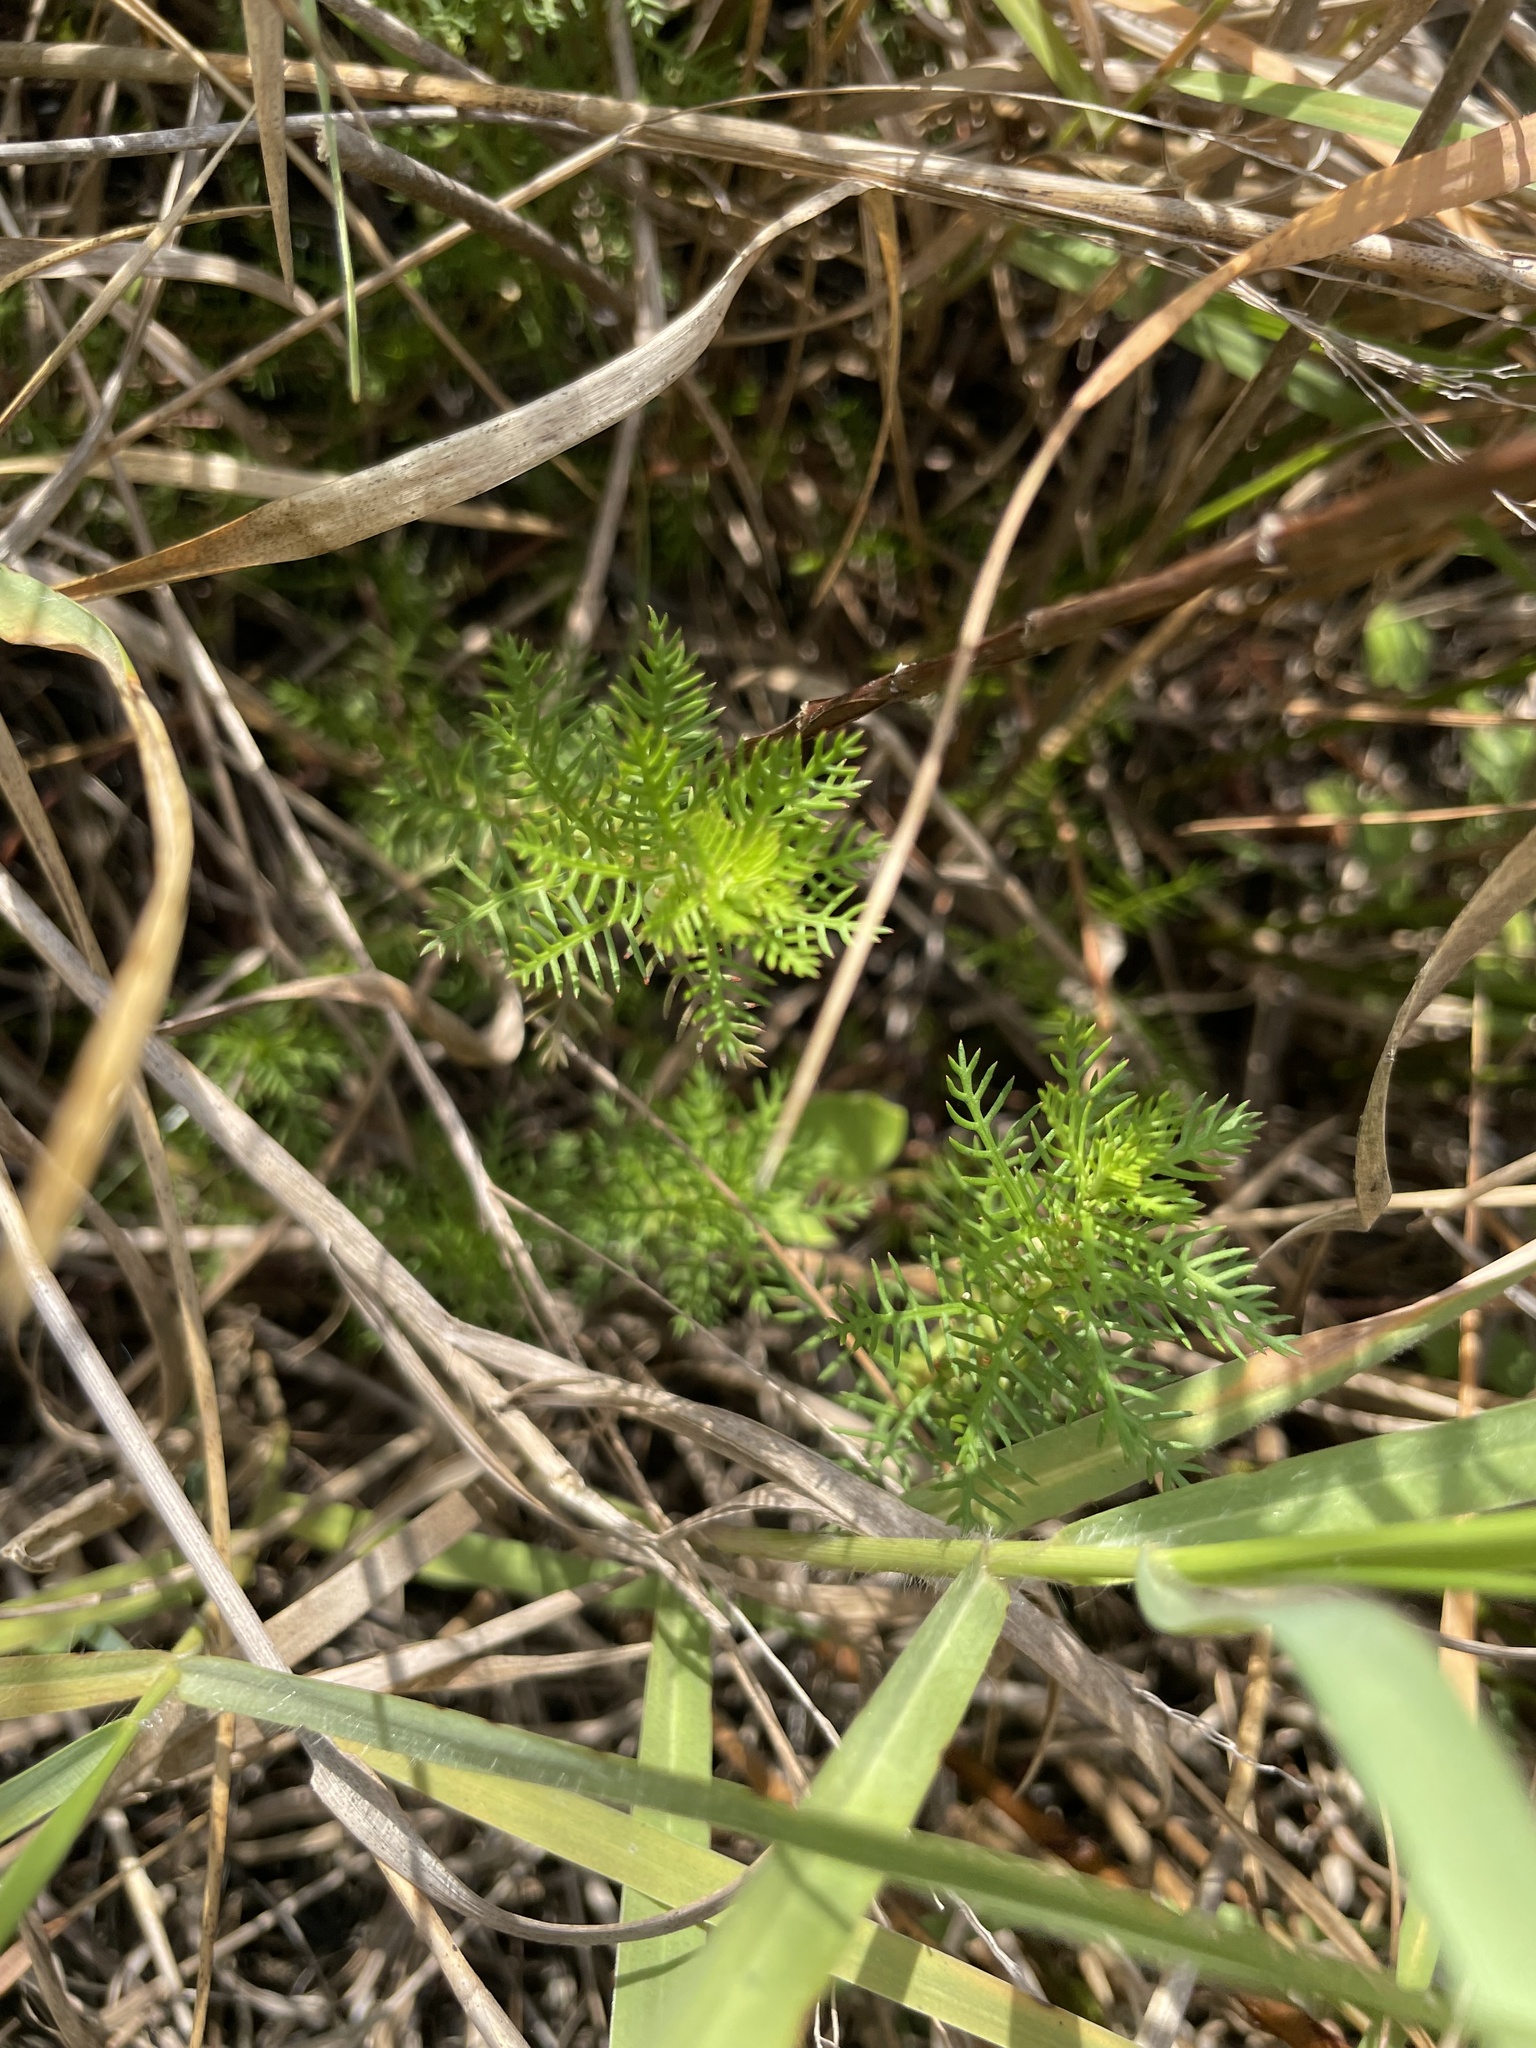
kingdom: Plantae
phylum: Tracheophyta
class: Magnoliopsida
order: Saxifragales
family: Haloragaceae
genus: Proserpinaca
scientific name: Proserpinaca pectinata
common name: Comb-leaved mermaidweed
